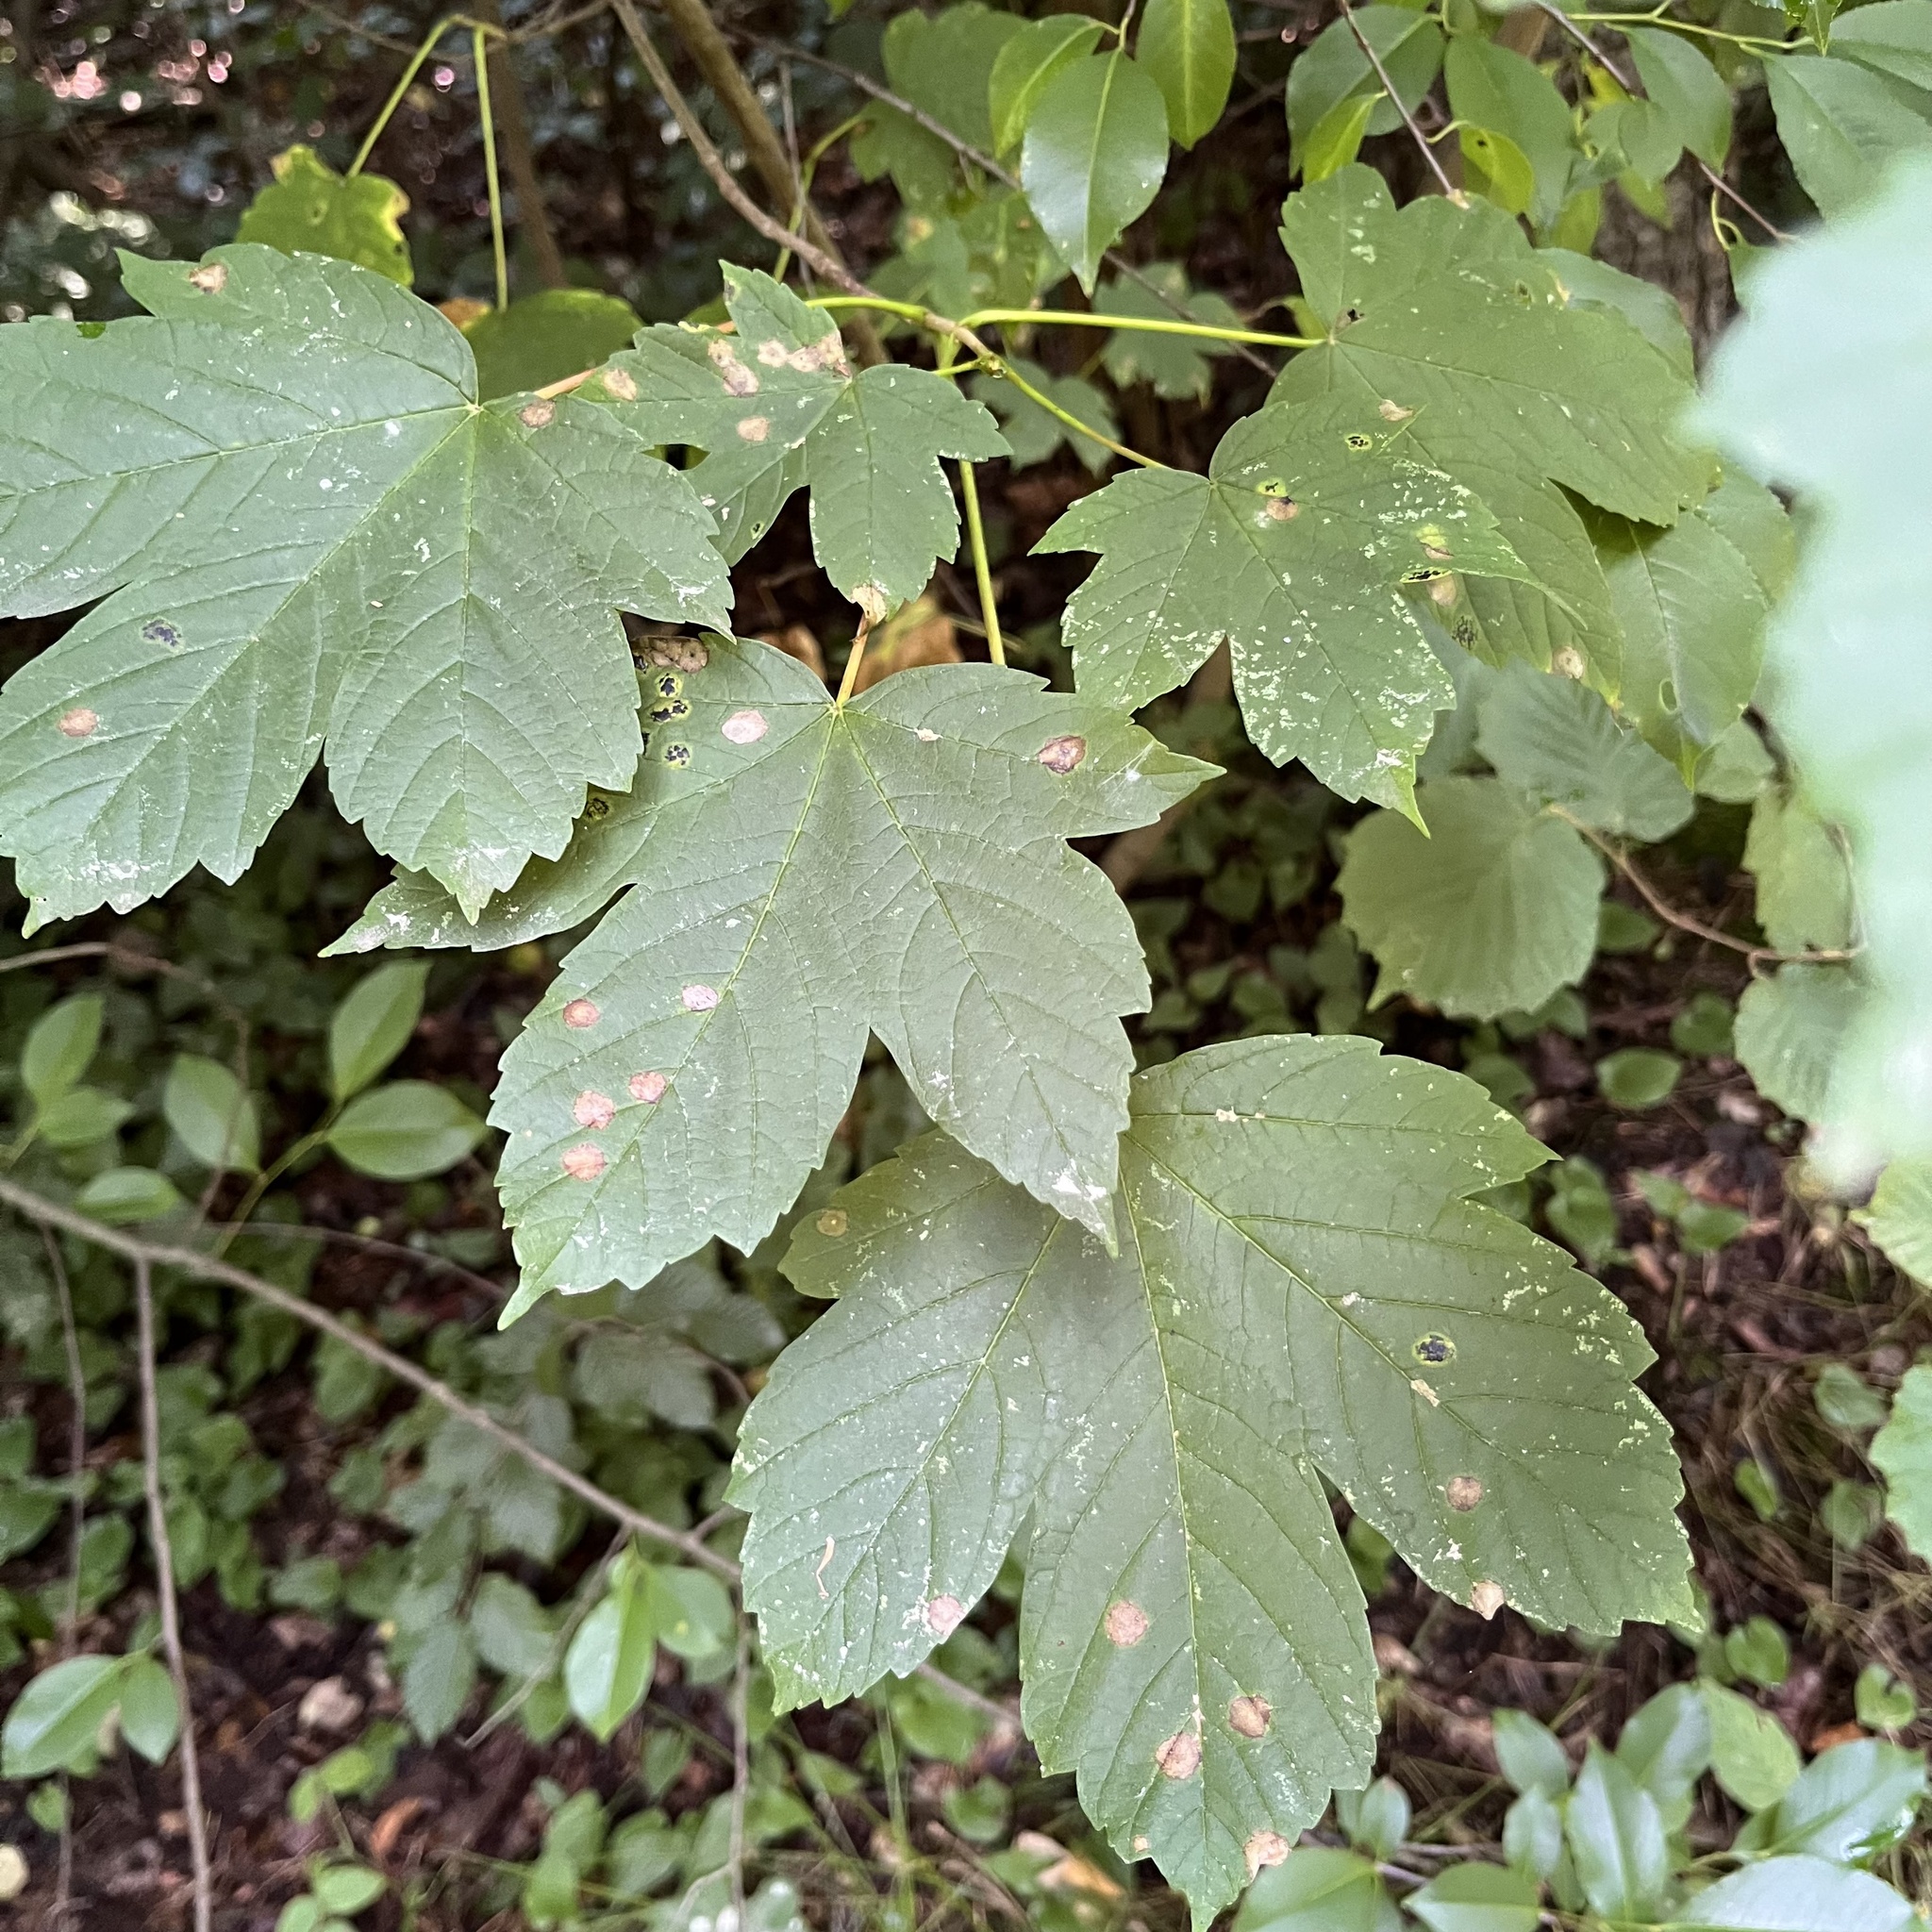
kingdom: Plantae
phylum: Tracheophyta
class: Magnoliopsida
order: Sapindales
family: Sapindaceae
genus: Acer
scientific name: Acer pseudoplatanus
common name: Sycamore
